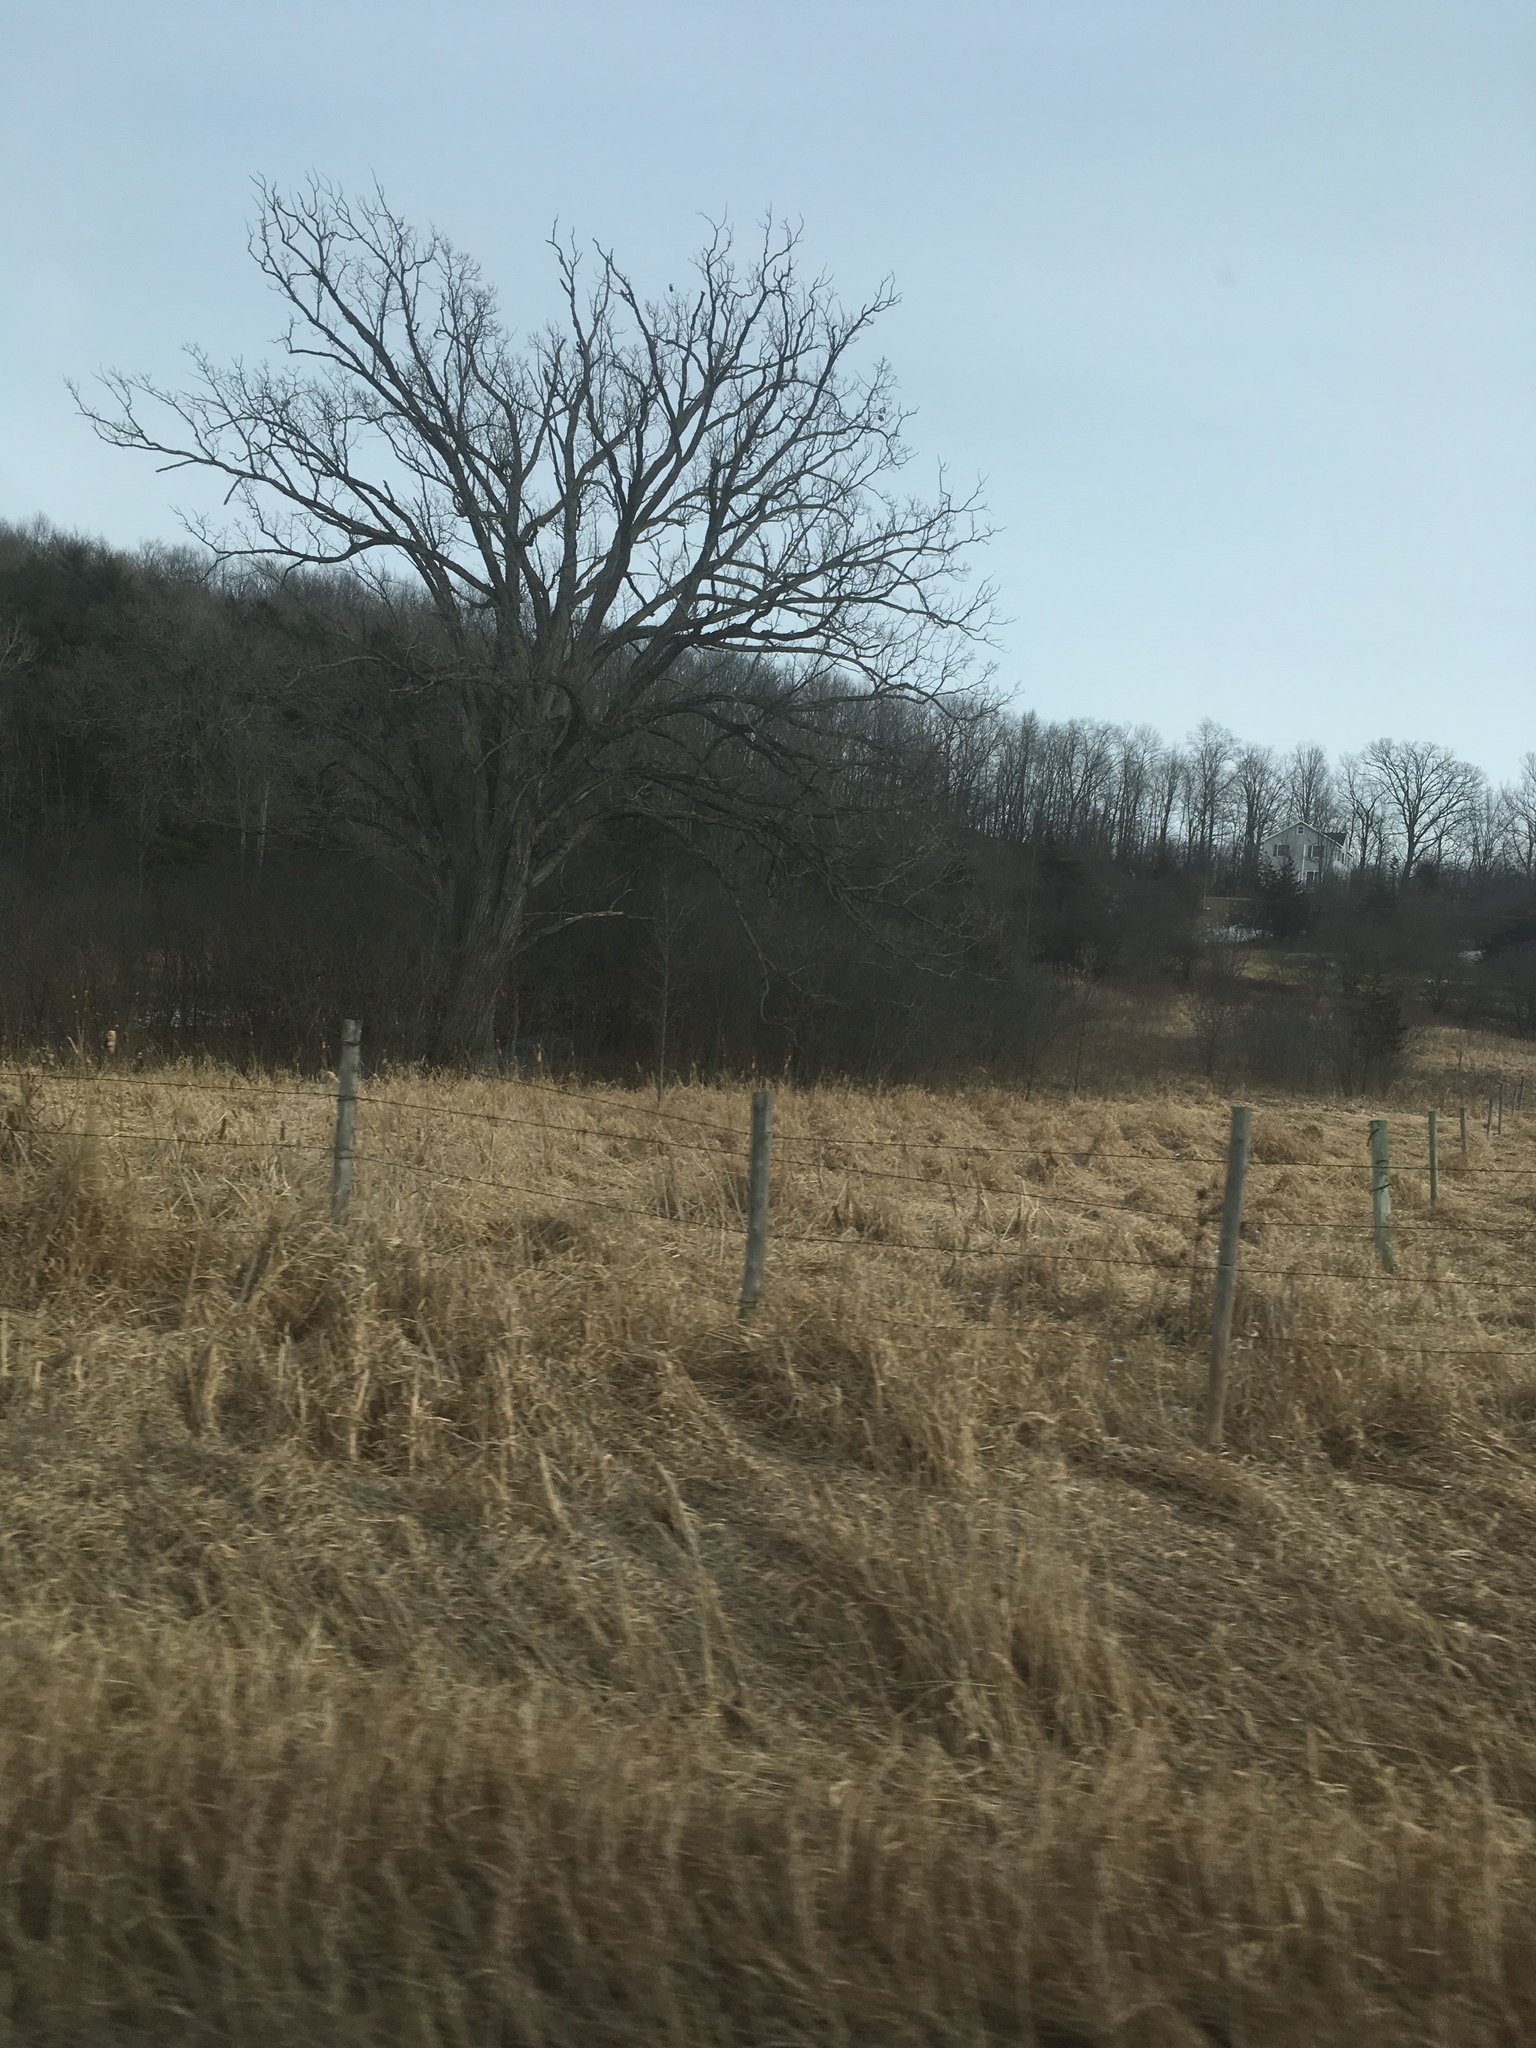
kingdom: Plantae
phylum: Tracheophyta
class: Magnoliopsida
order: Fagales
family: Fagaceae
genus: Quercus
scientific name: Quercus macrocarpa
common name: Bur oak
